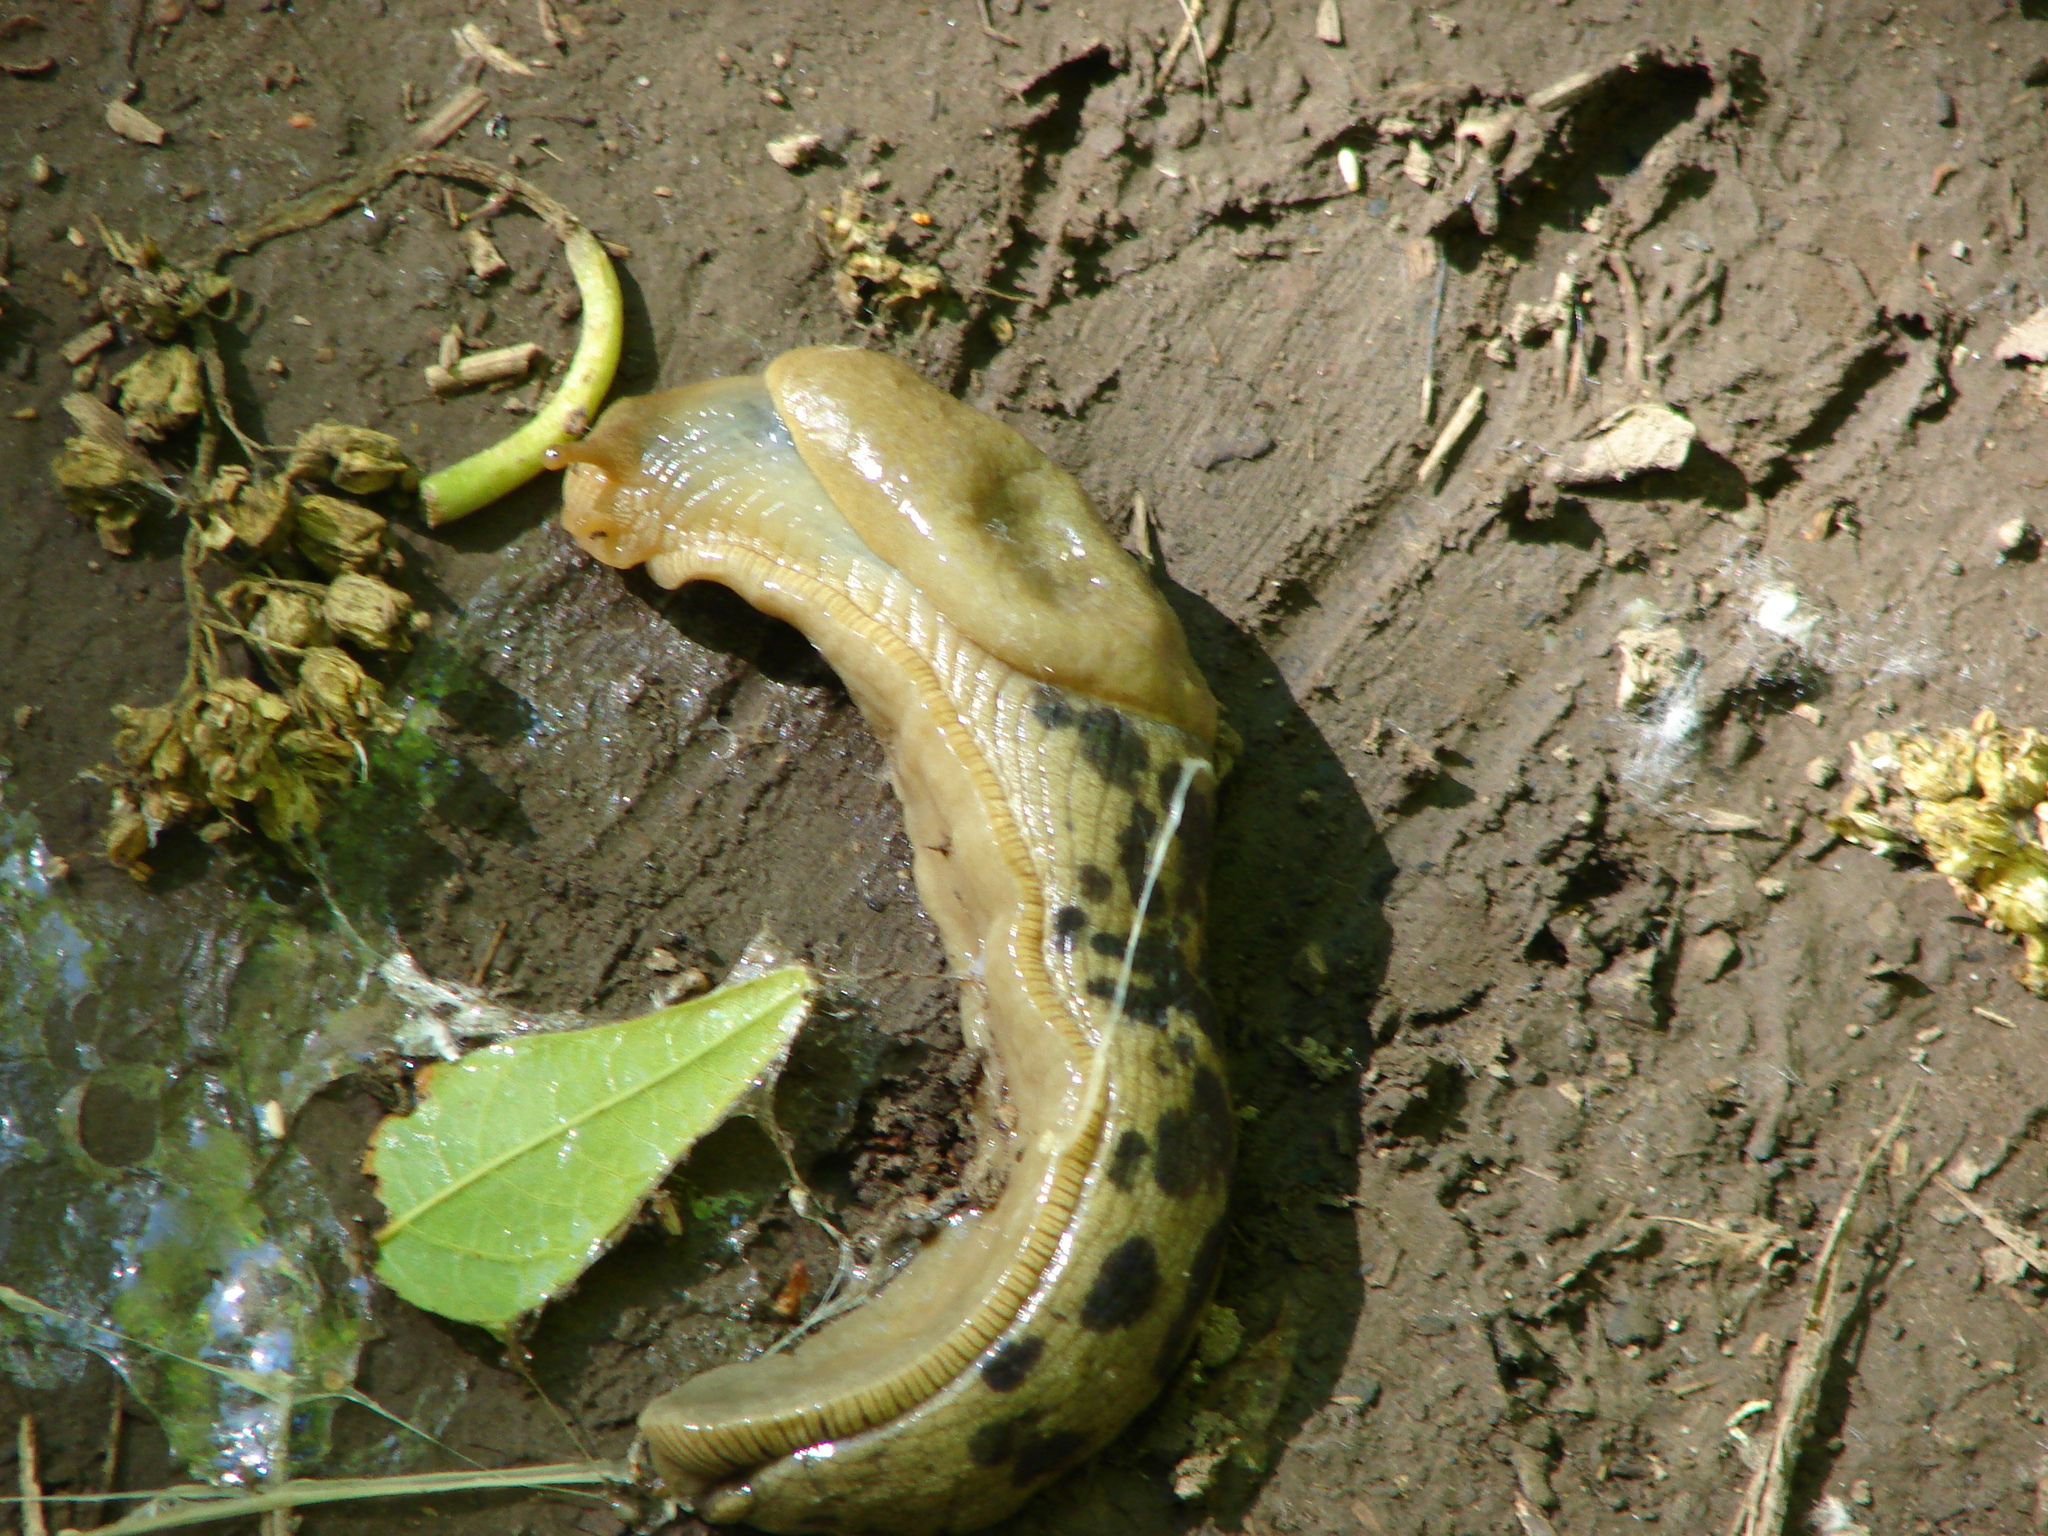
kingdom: Animalia
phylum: Mollusca
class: Gastropoda
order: Stylommatophora
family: Ariolimacidae
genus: Ariolimax
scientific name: Ariolimax columbianus
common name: Pacific banana slug
